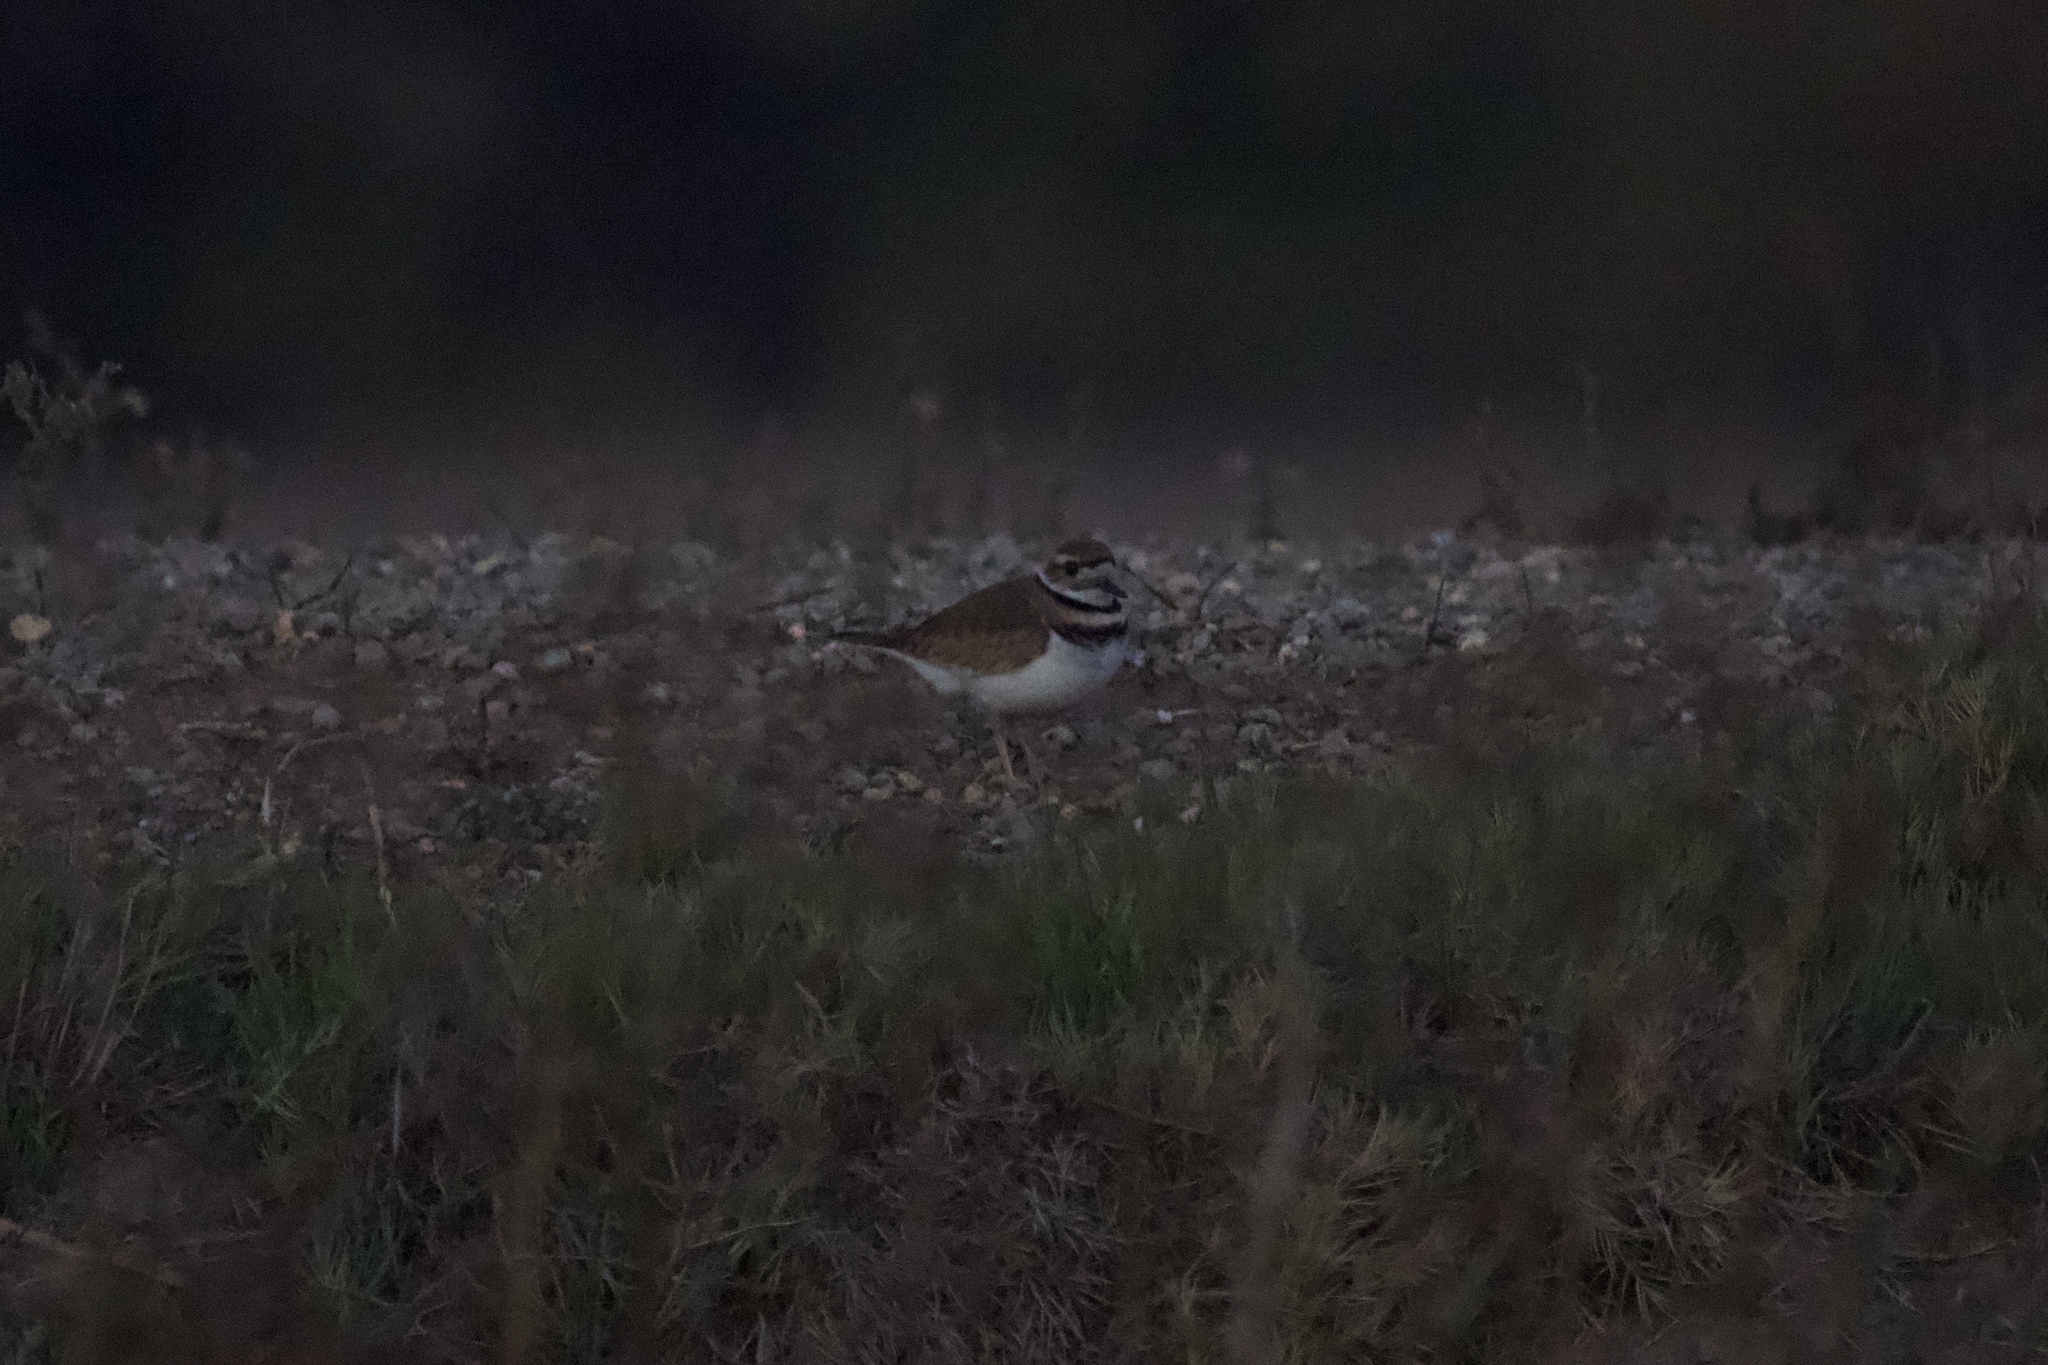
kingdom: Animalia
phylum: Chordata
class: Aves
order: Charadriiformes
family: Charadriidae
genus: Charadrius
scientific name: Charadrius vociferus
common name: Killdeer
